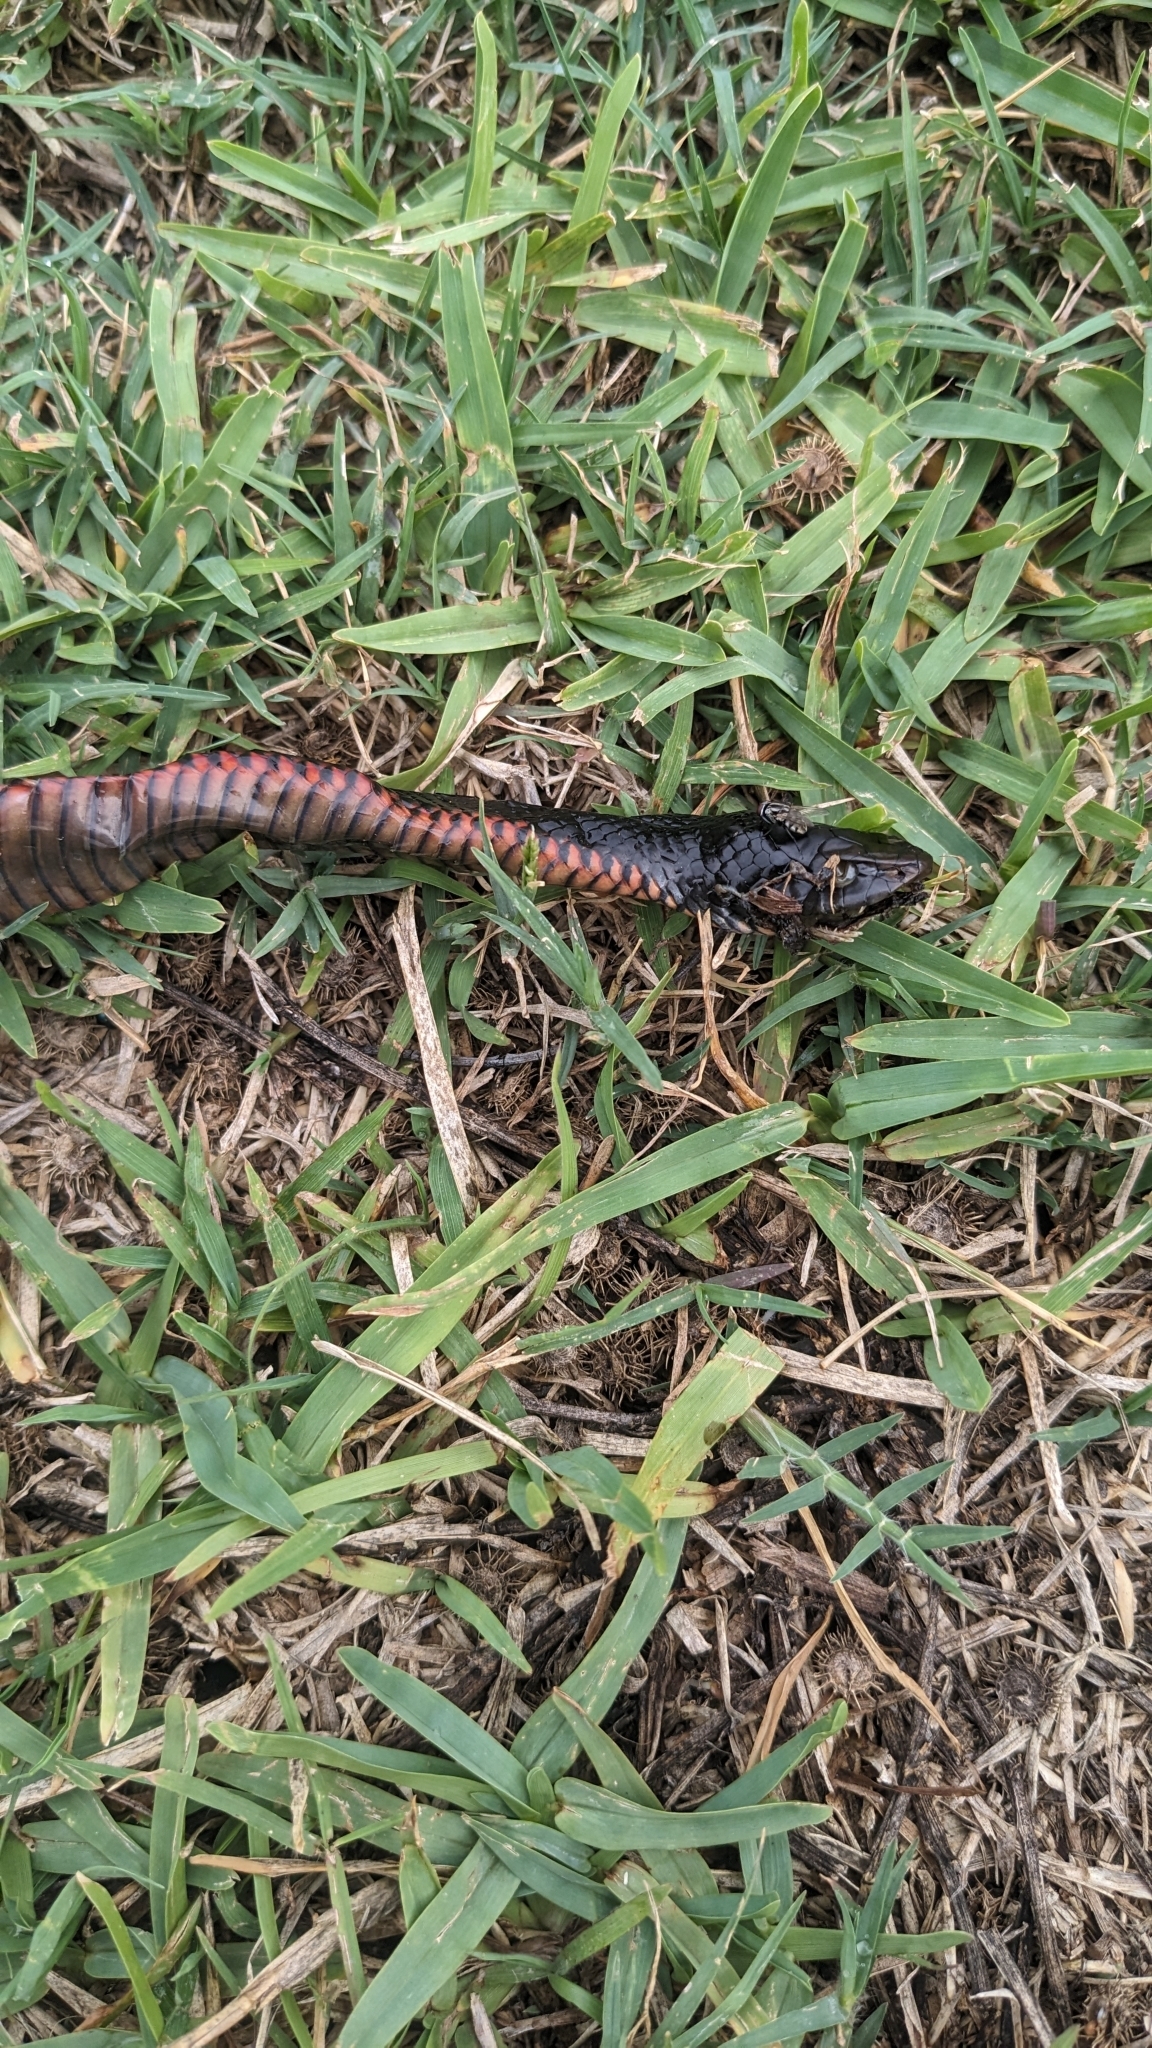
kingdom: Animalia
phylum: Chordata
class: Squamata
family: Elapidae
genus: Pseudechis
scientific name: Pseudechis porphyriacus
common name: Australian black snake
